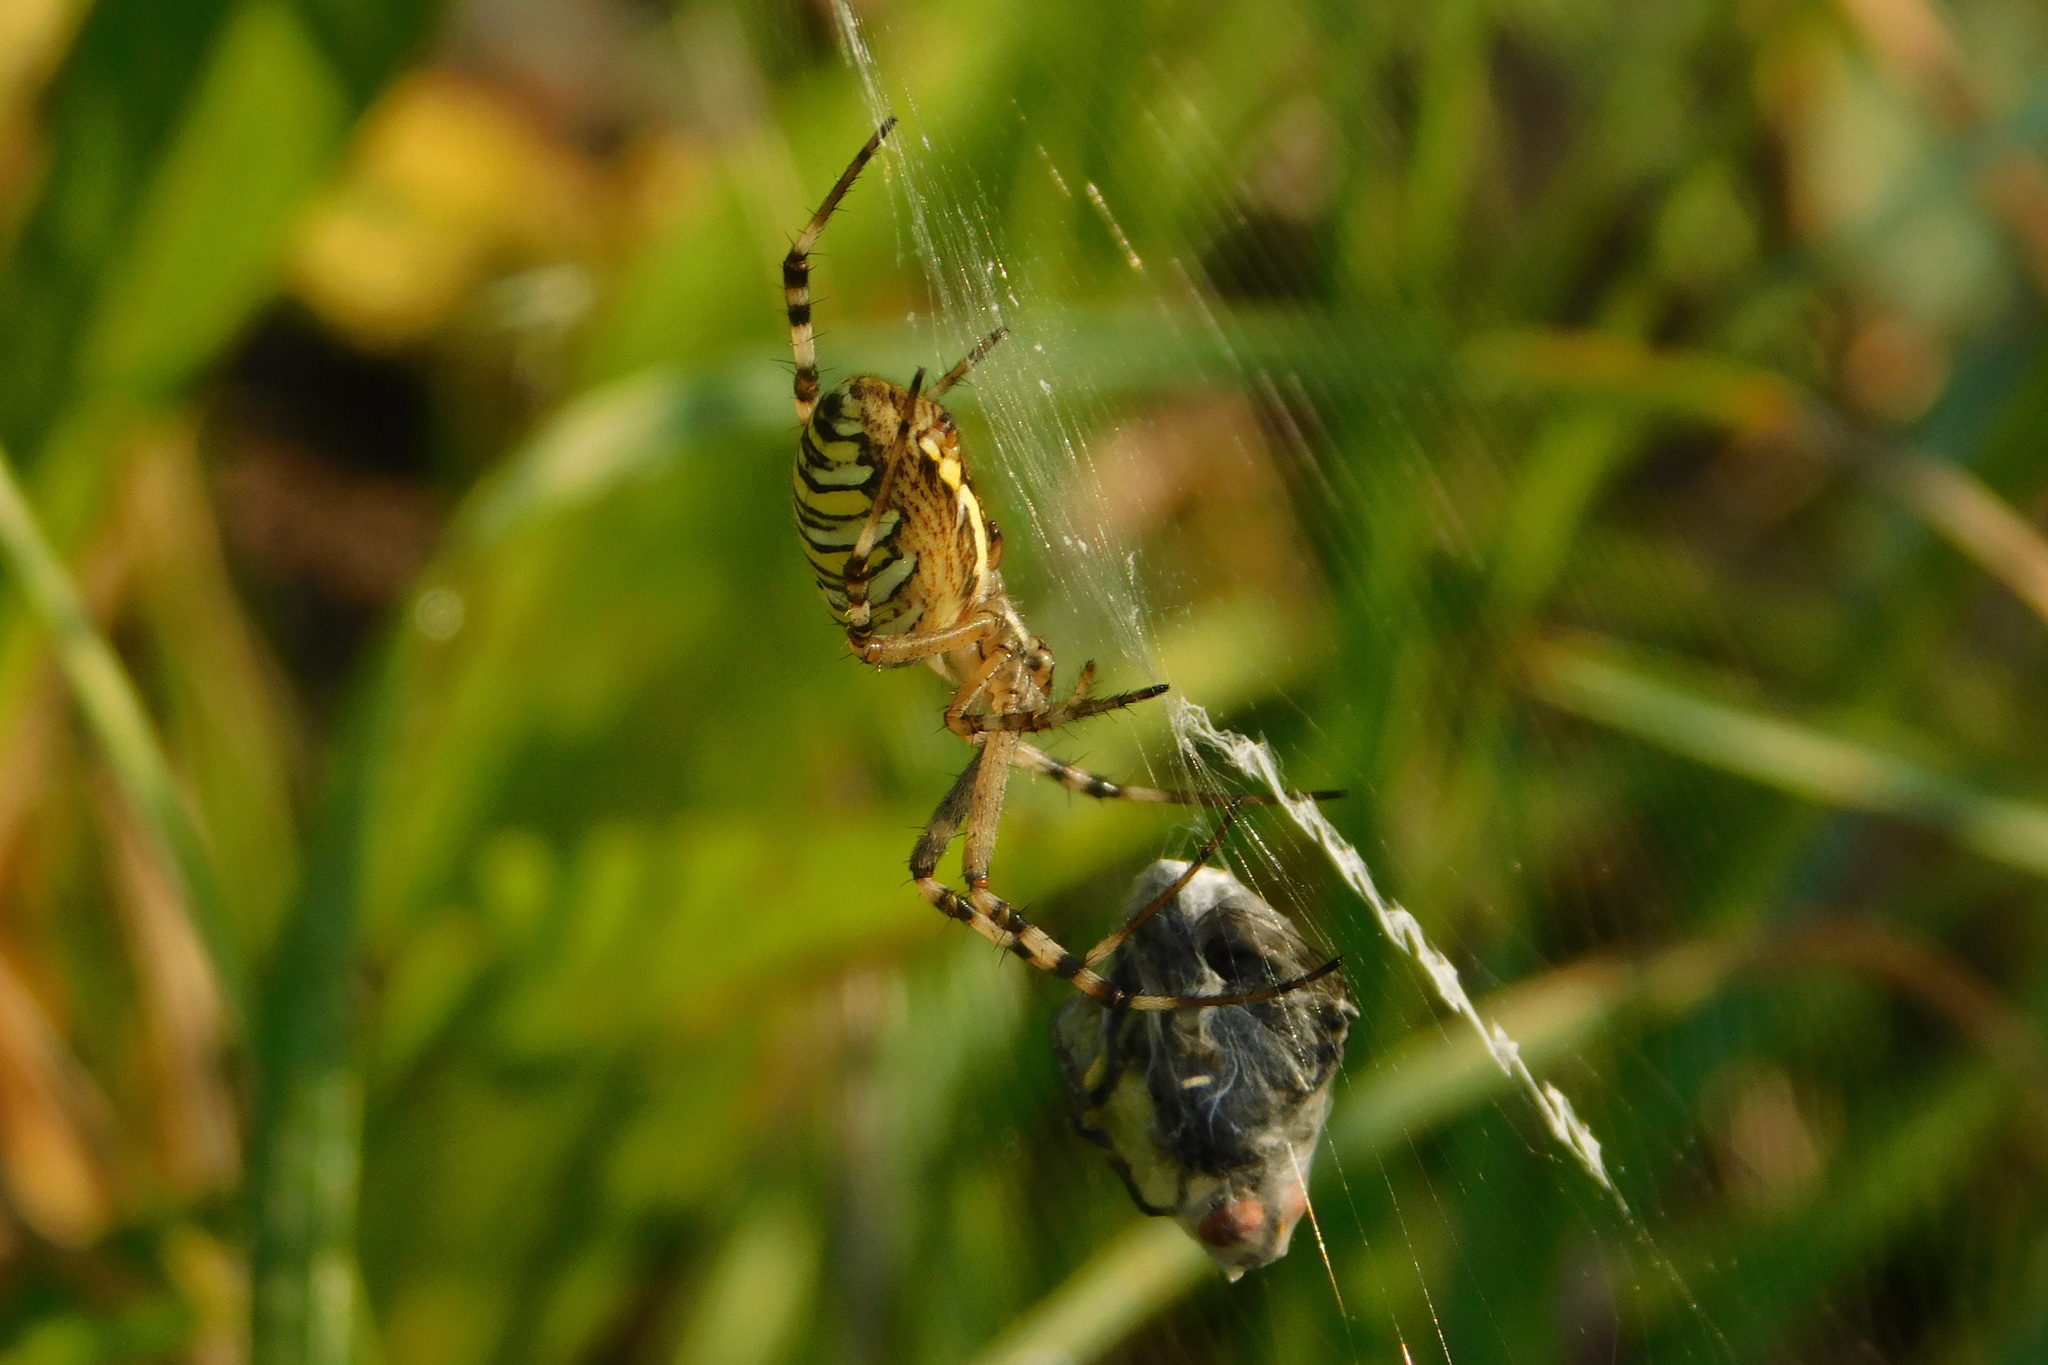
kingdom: Animalia
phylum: Arthropoda
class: Arachnida
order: Araneae
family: Araneidae
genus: Argiope
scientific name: Argiope bruennichi
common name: Wasp spider
